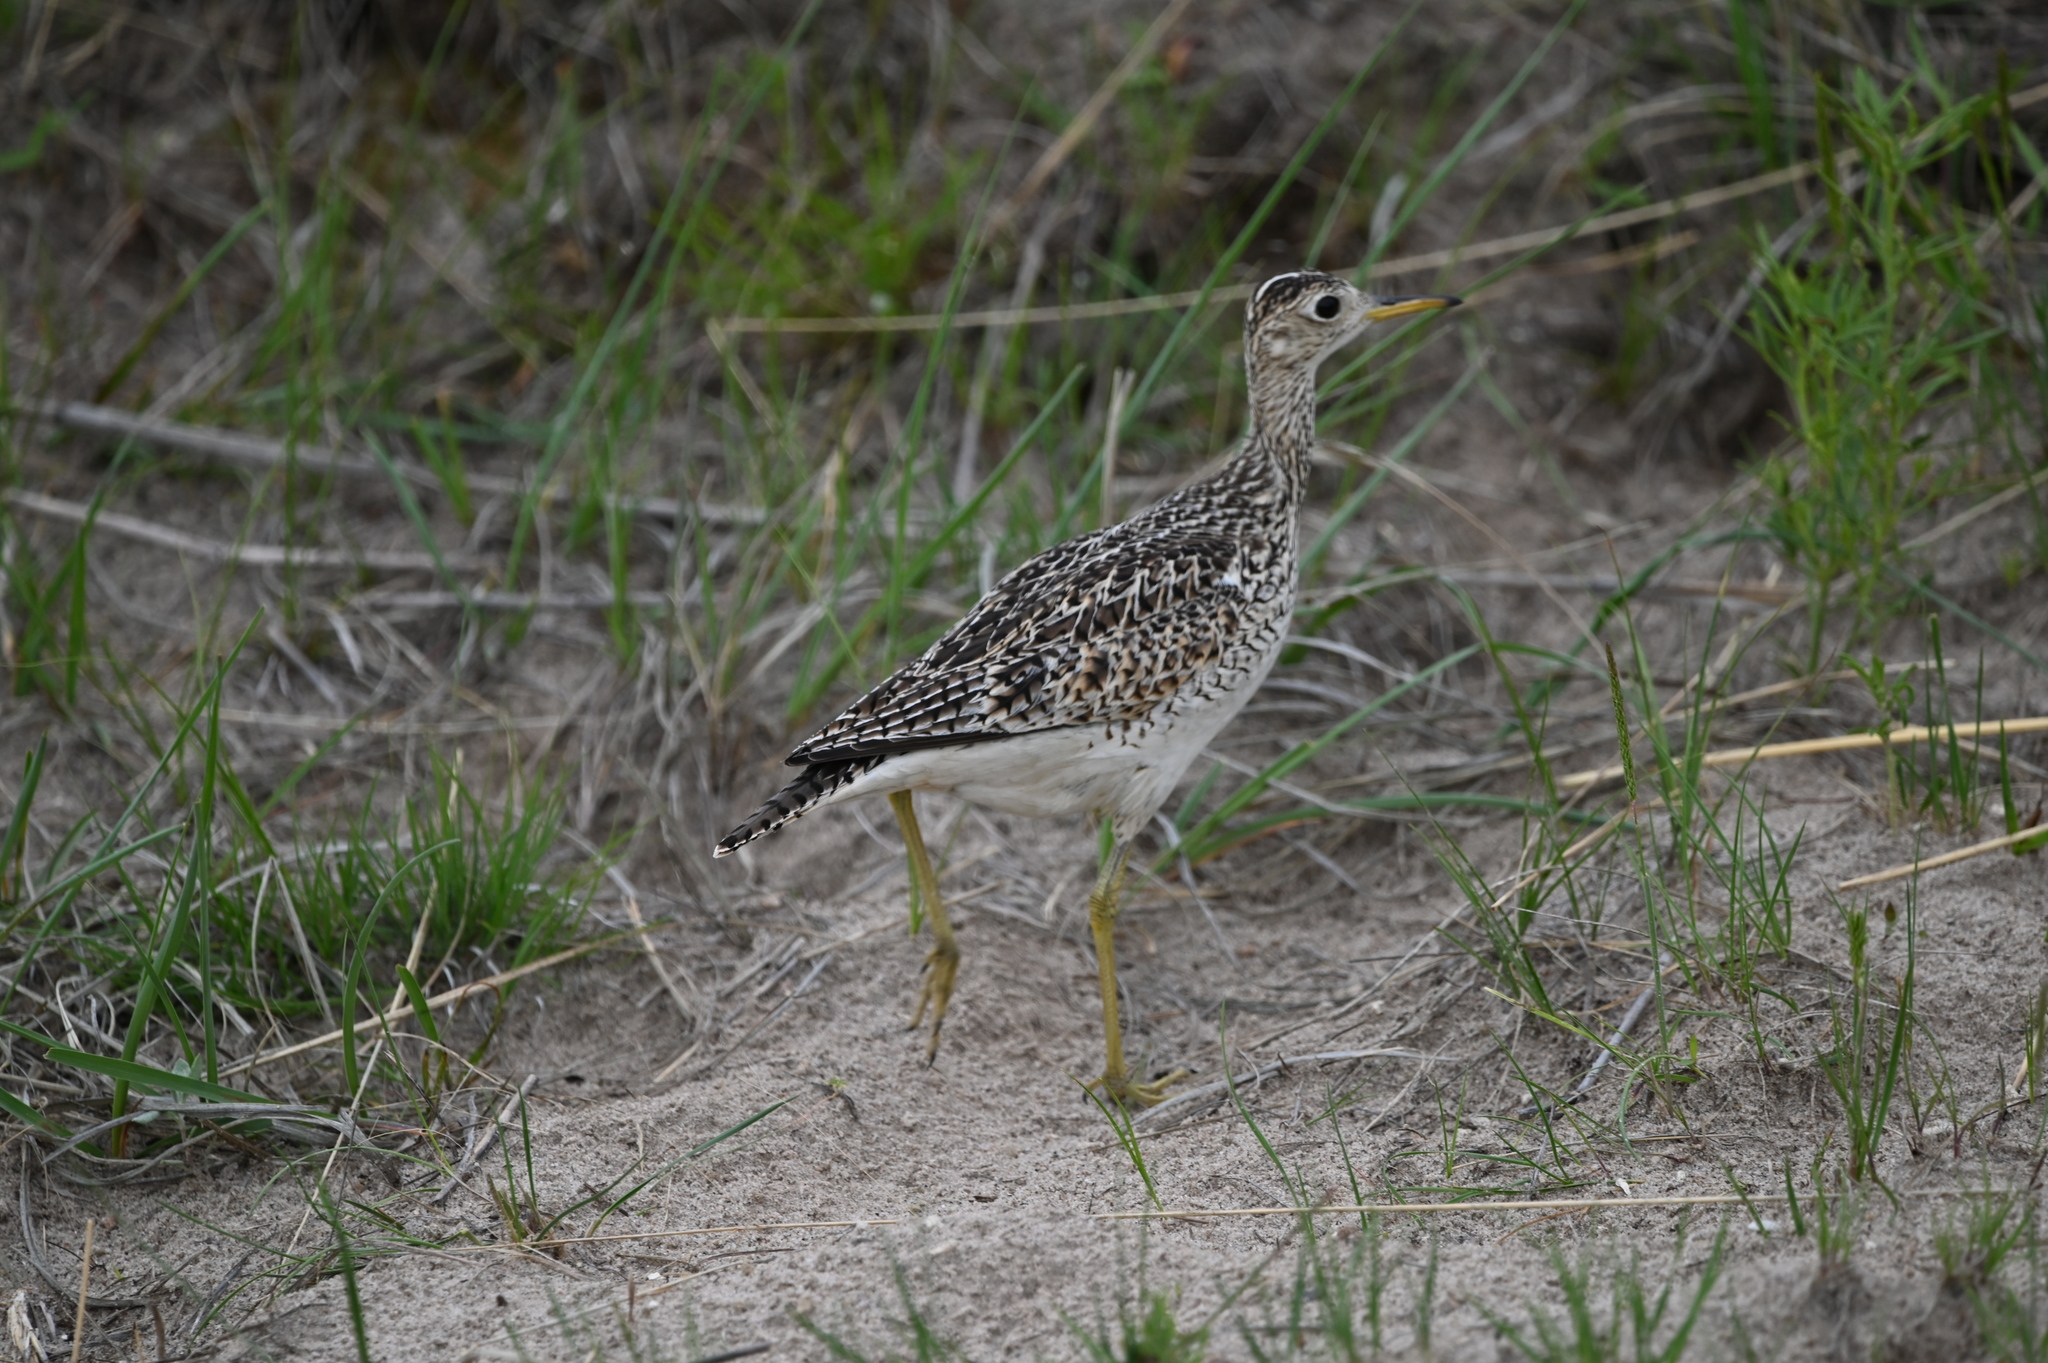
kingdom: Animalia
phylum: Chordata
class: Aves
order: Charadriiformes
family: Scolopacidae
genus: Bartramia
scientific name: Bartramia longicauda
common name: Upland sandpiper
